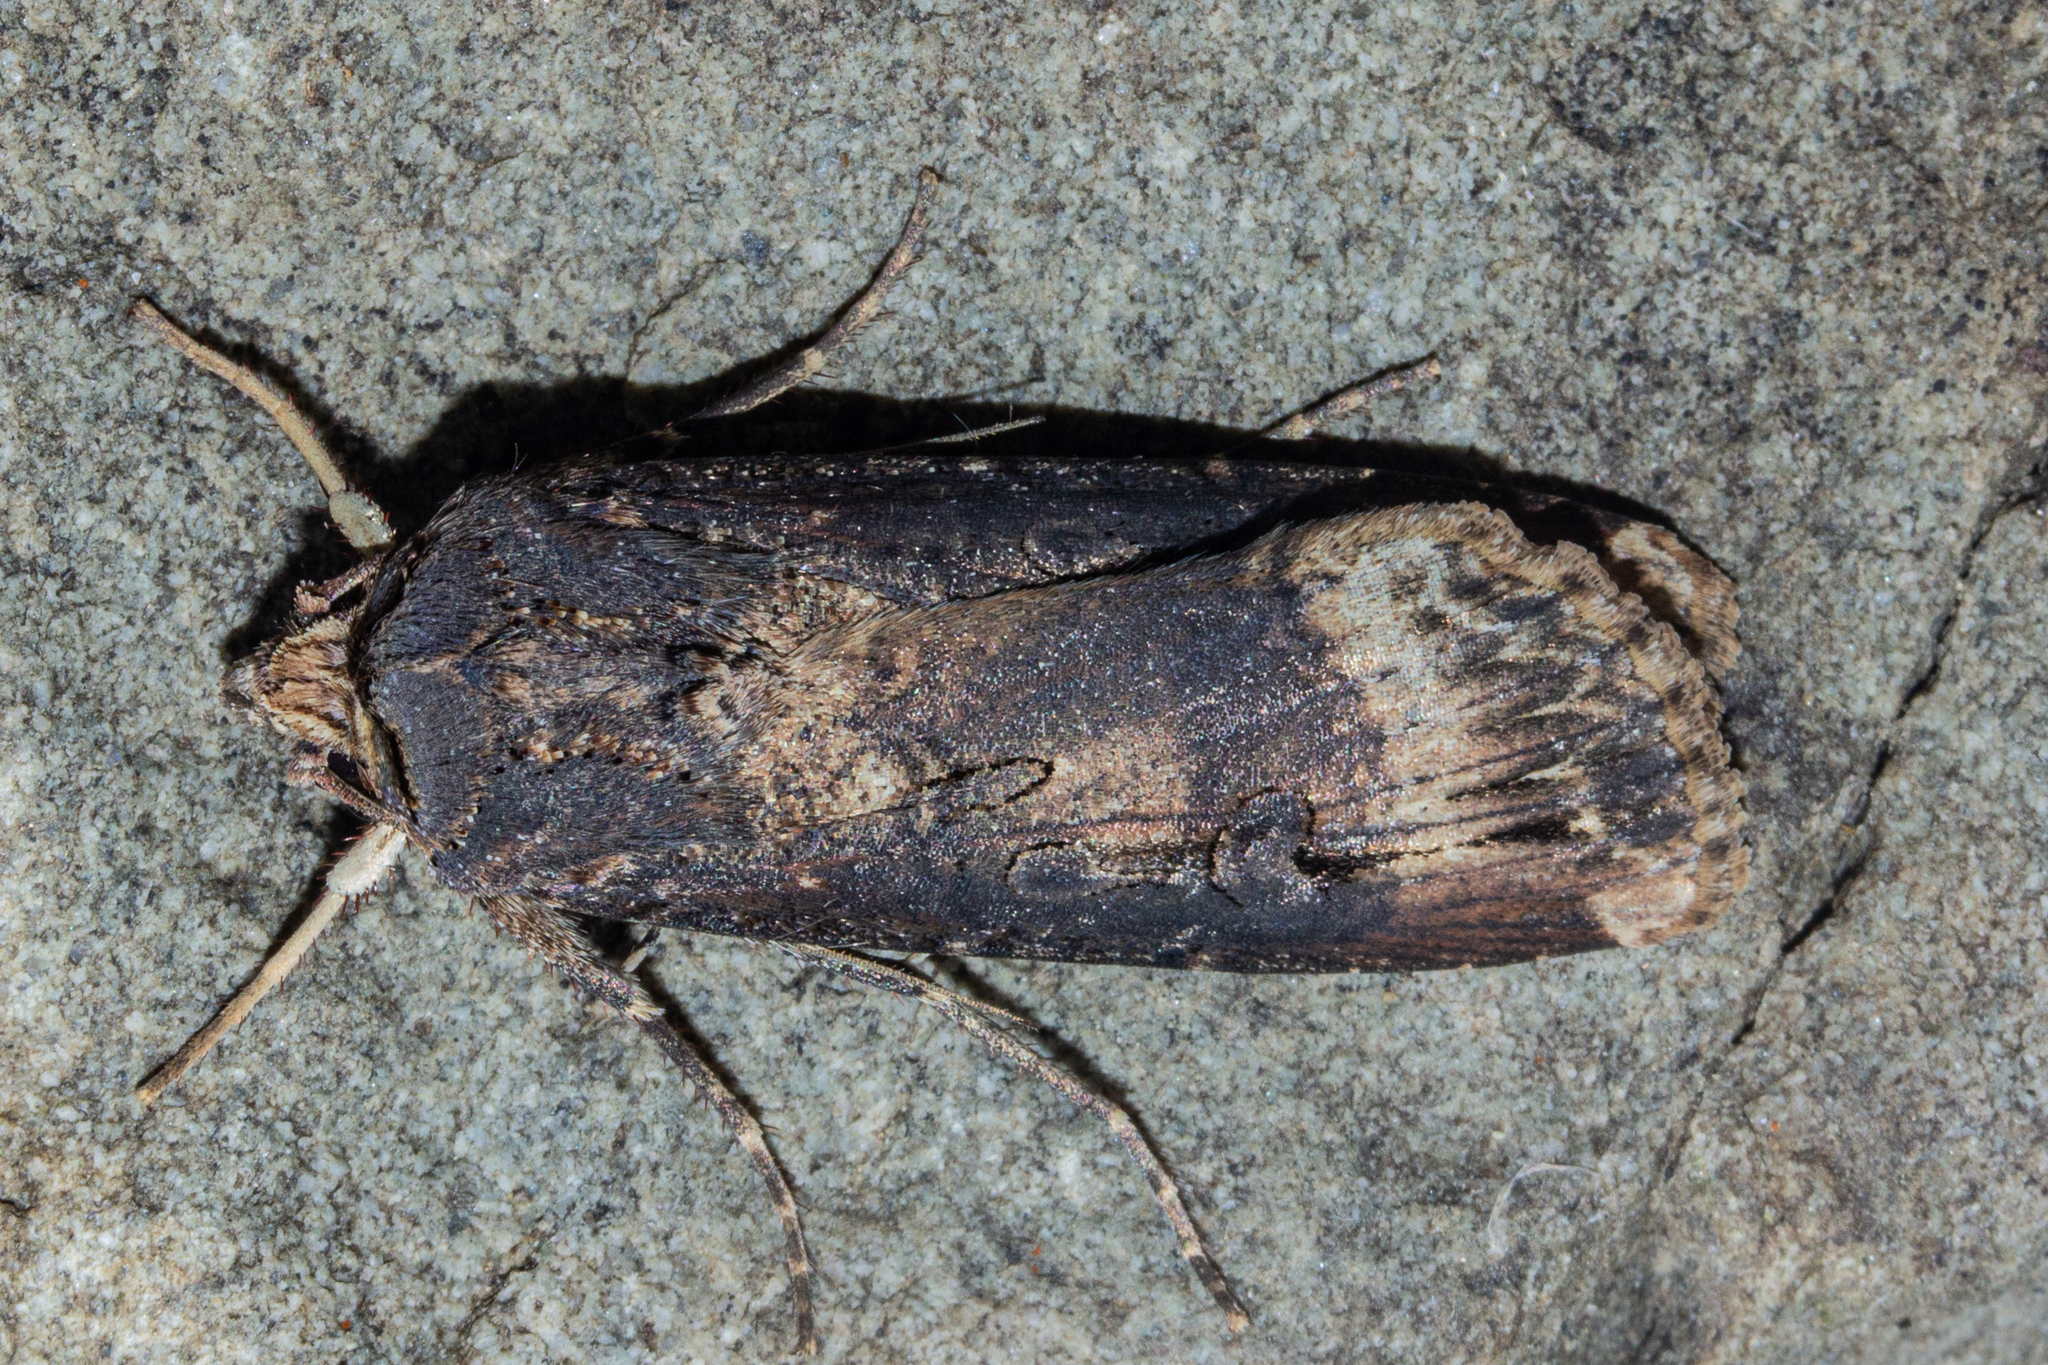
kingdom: Animalia
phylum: Arthropoda
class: Insecta
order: Lepidoptera
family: Noctuidae
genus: Agrotis
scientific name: Agrotis ipsilon
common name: Dark sword-grass
